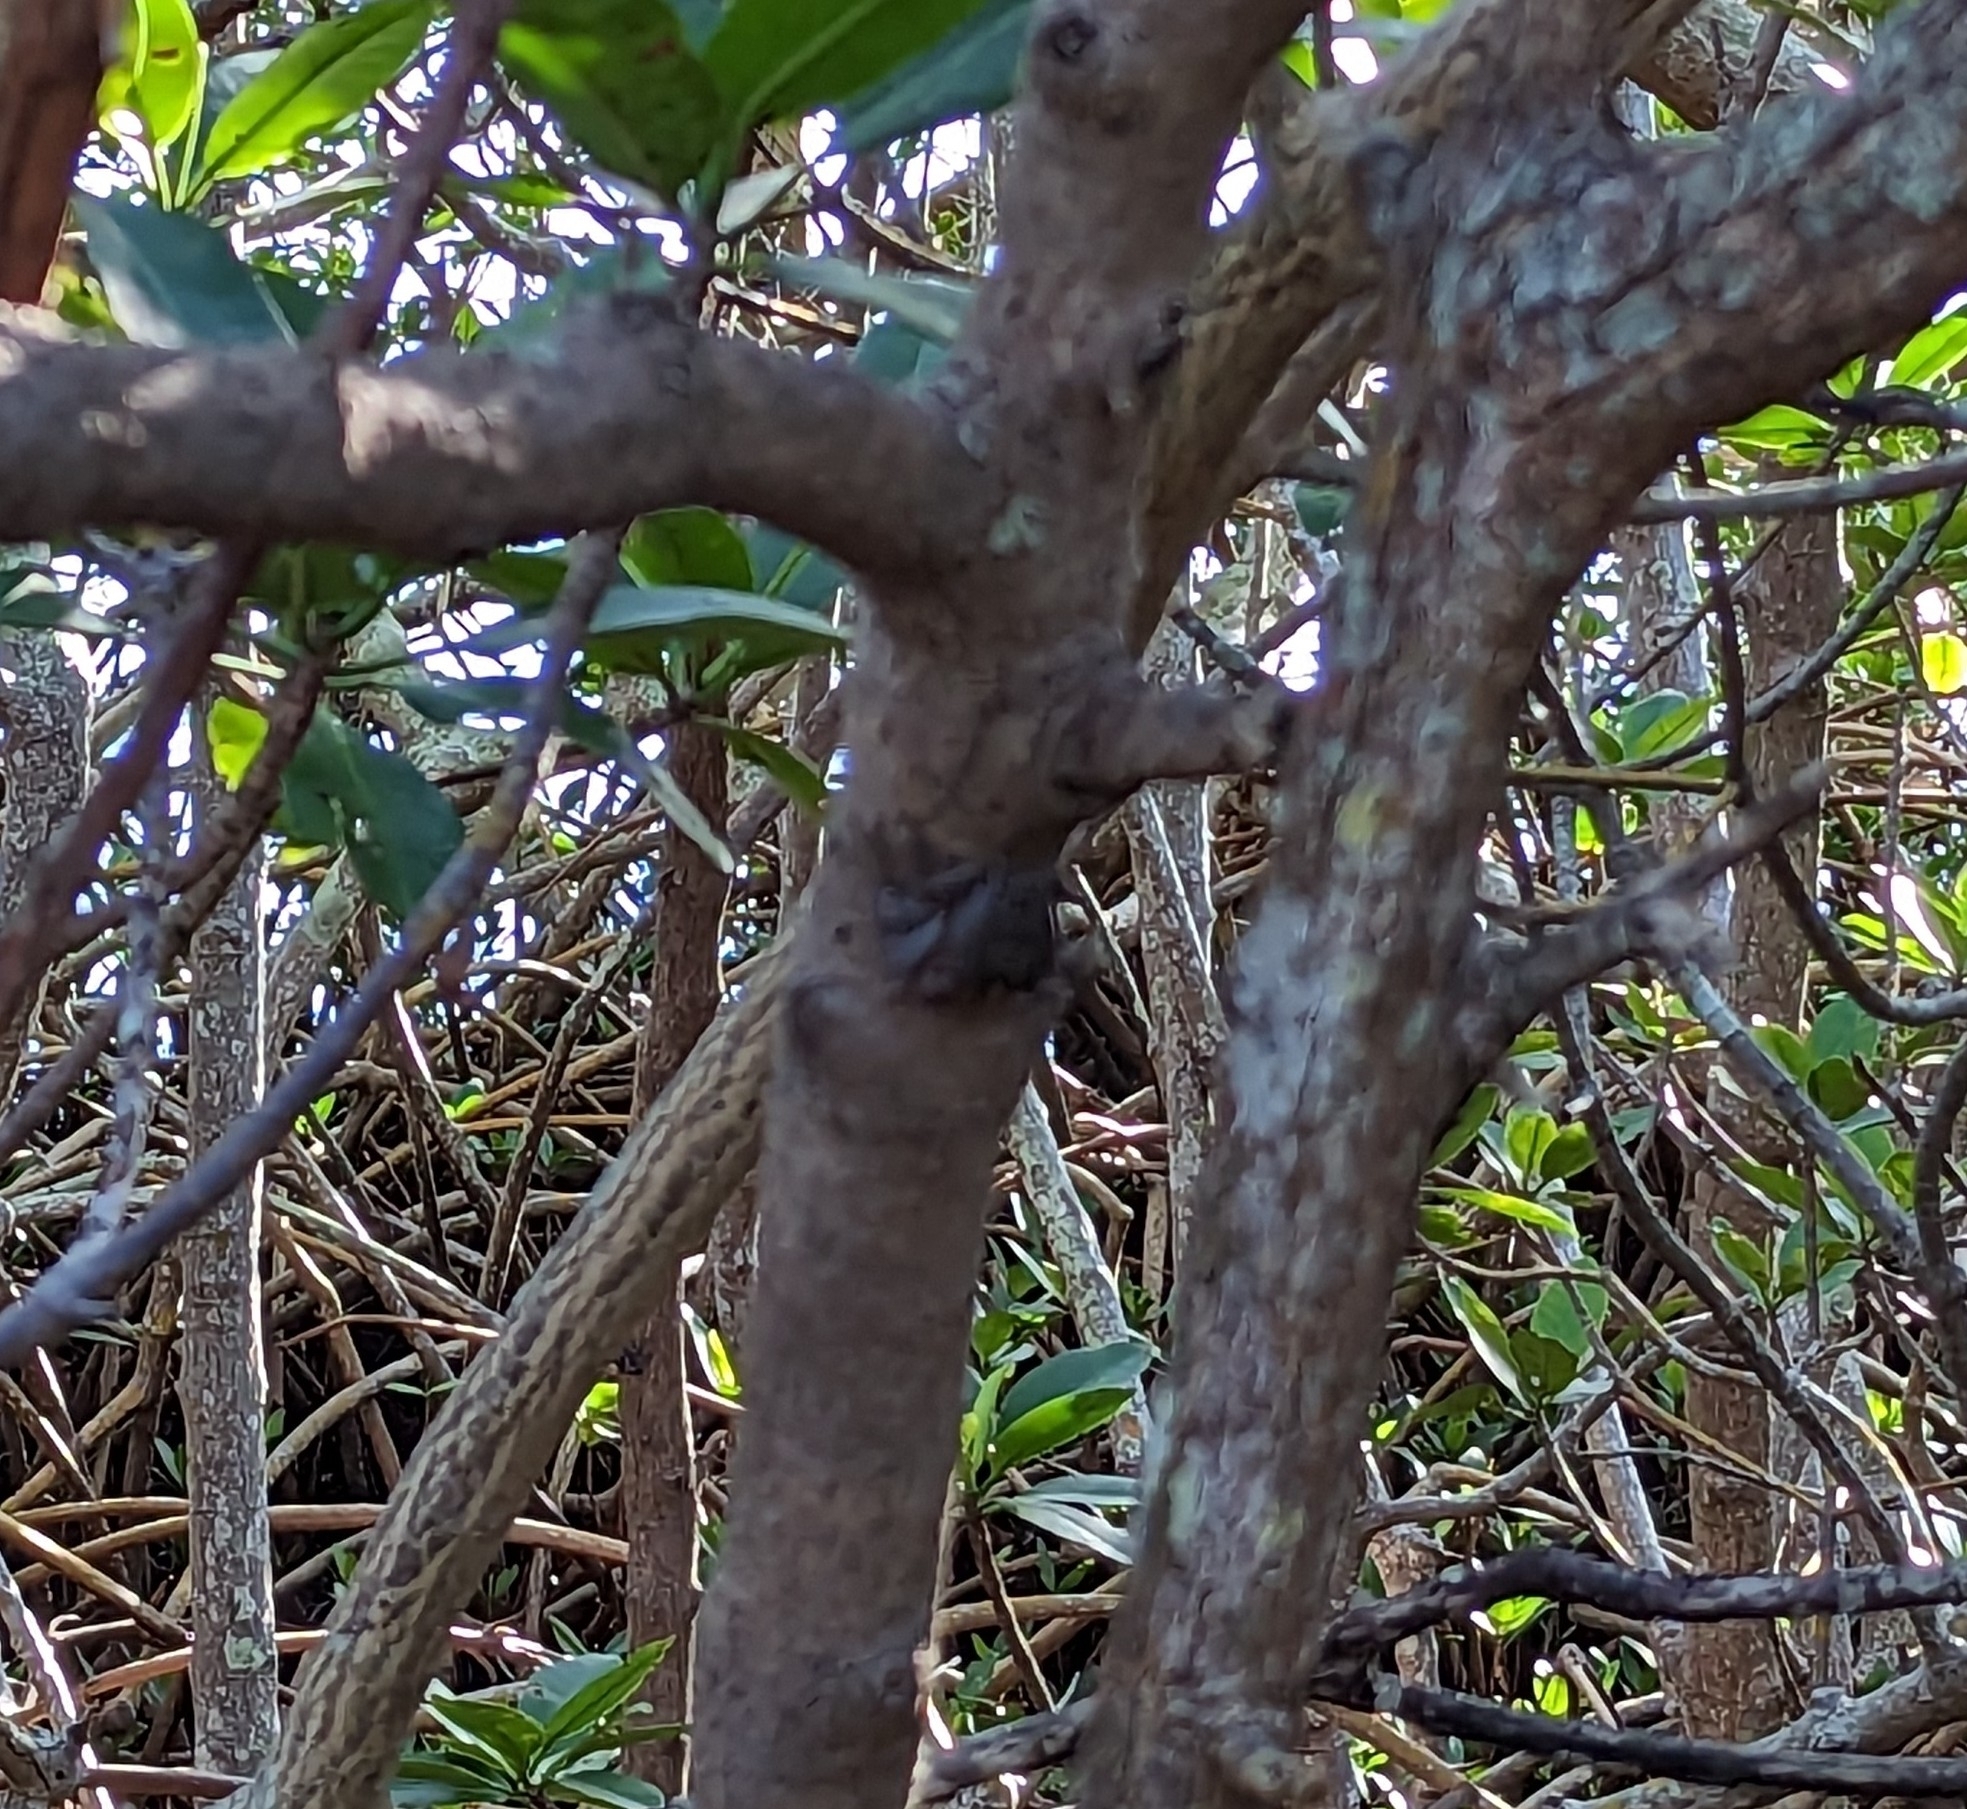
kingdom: Animalia
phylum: Arthropoda
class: Malacostraca
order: Decapoda
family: Sesarmidae
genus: Aratus
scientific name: Aratus pisonii
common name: Mangrove crab
